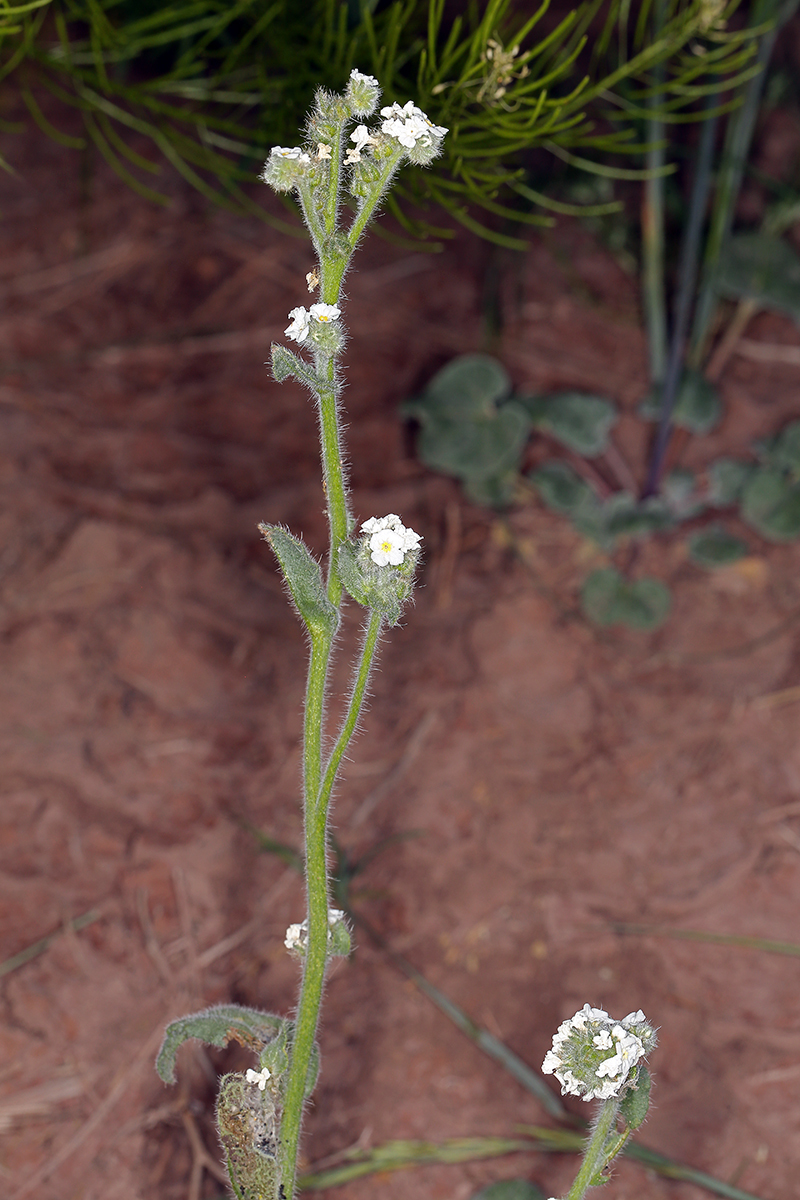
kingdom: Plantae
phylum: Tracheophyta
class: Magnoliopsida
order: Boraginales
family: Boraginaceae
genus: Amsinckiopsis
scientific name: Amsinckiopsis kingii
